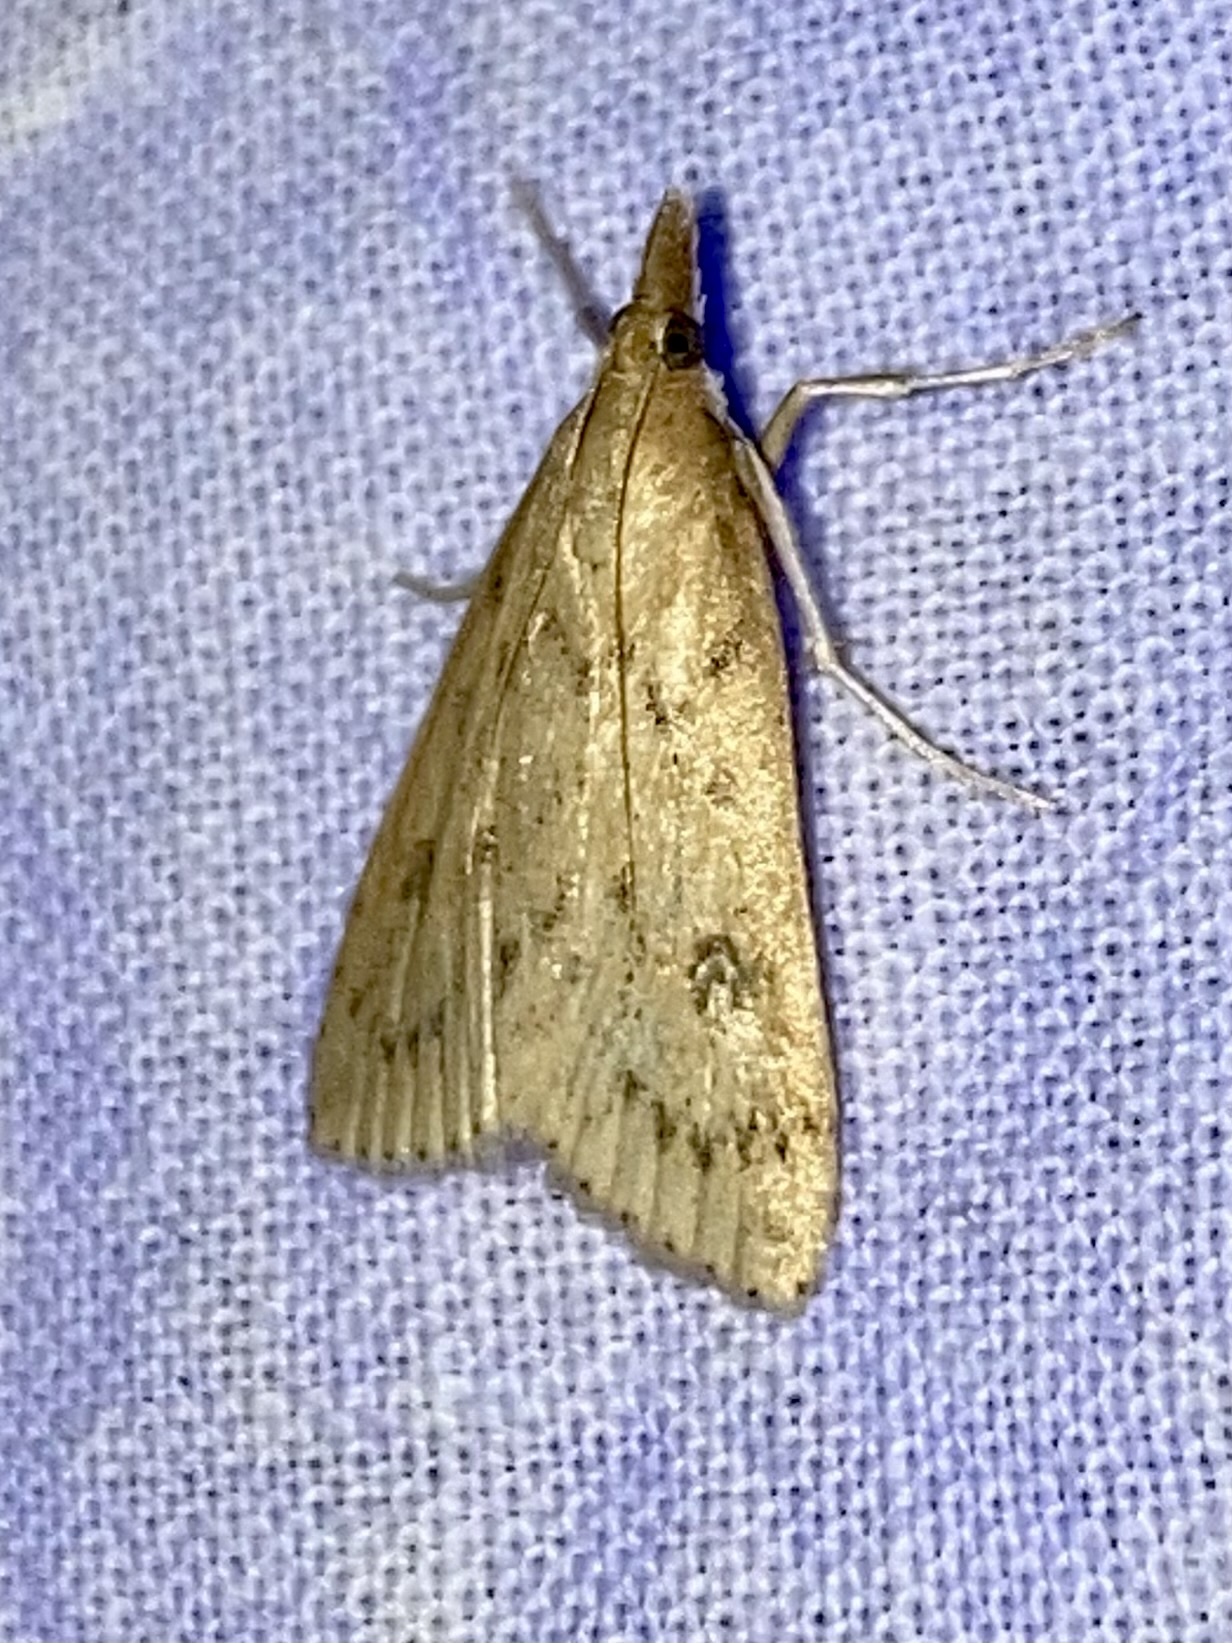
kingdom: Animalia
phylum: Arthropoda
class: Insecta
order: Lepidoptera
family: Crambidae
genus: Udea
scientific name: Udea numeralis
